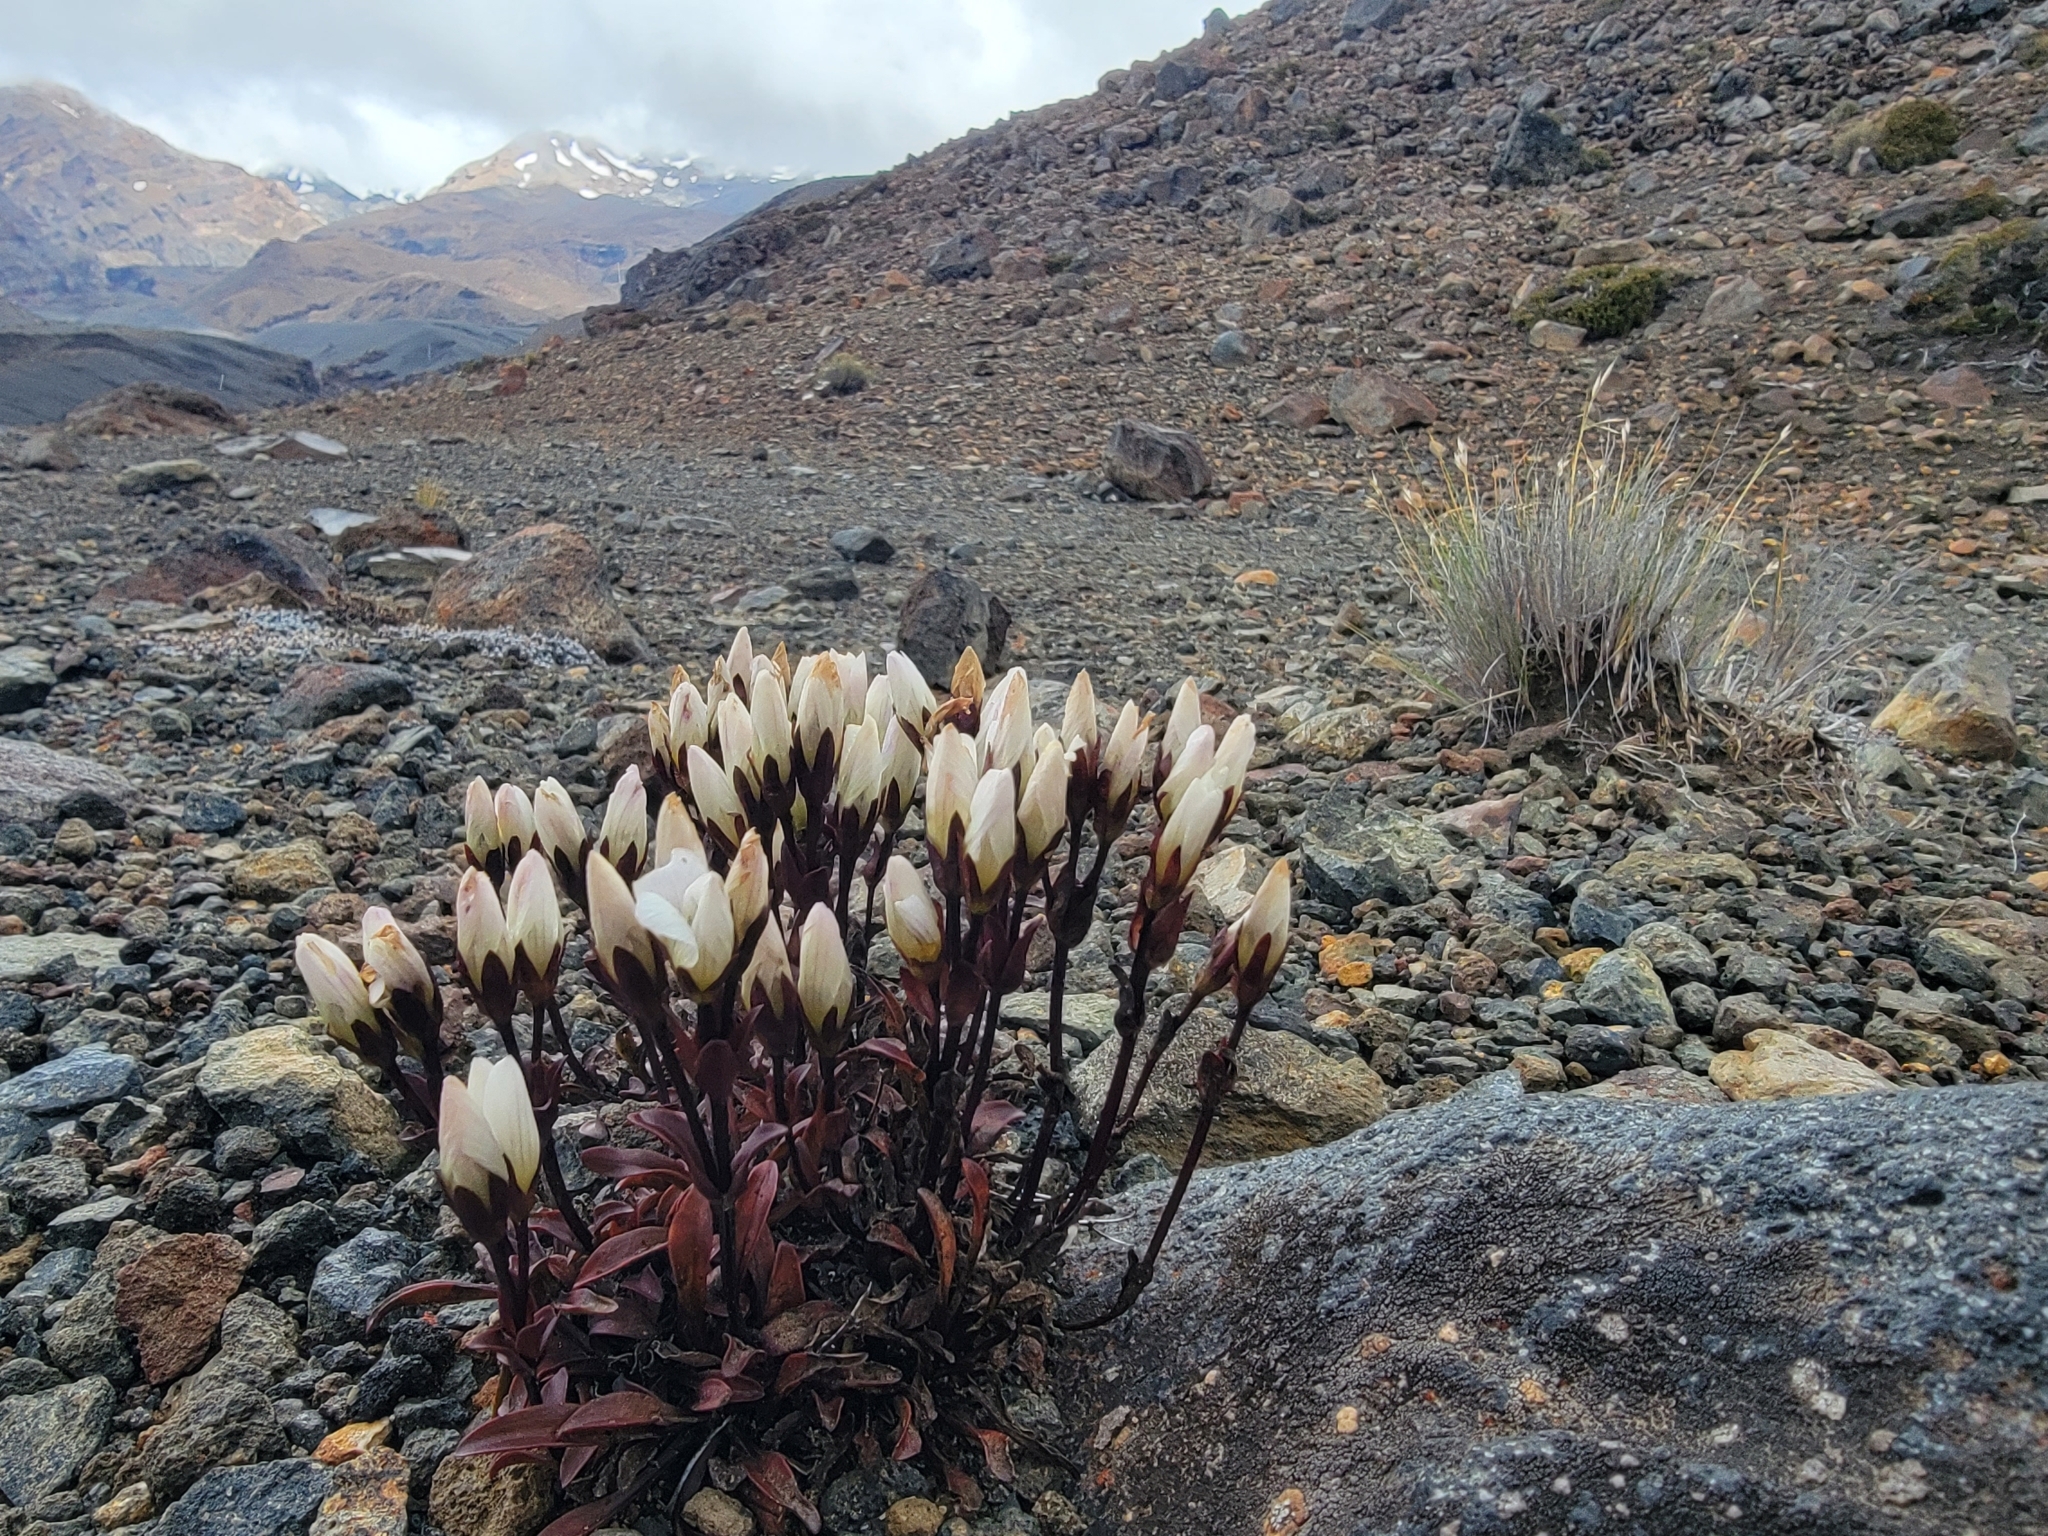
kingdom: Plantae
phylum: Tracheophyta
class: Magnoliopsida
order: Gentianales
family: Gentianaceae
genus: Gentianella
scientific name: Gentianella bellidifolia
